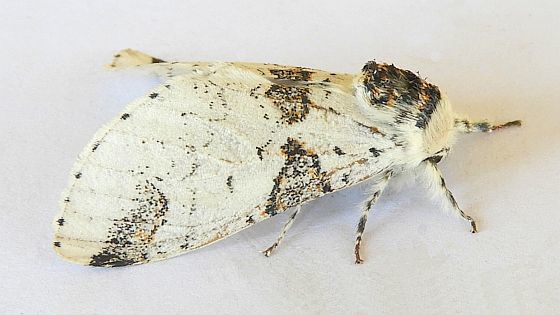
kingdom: Animalia
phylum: Arthropoda
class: Insecta
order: Lepidoptera
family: Notodontidae
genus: Furcula
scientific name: Furcula scolopendrina
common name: Zigzag furcula moth
